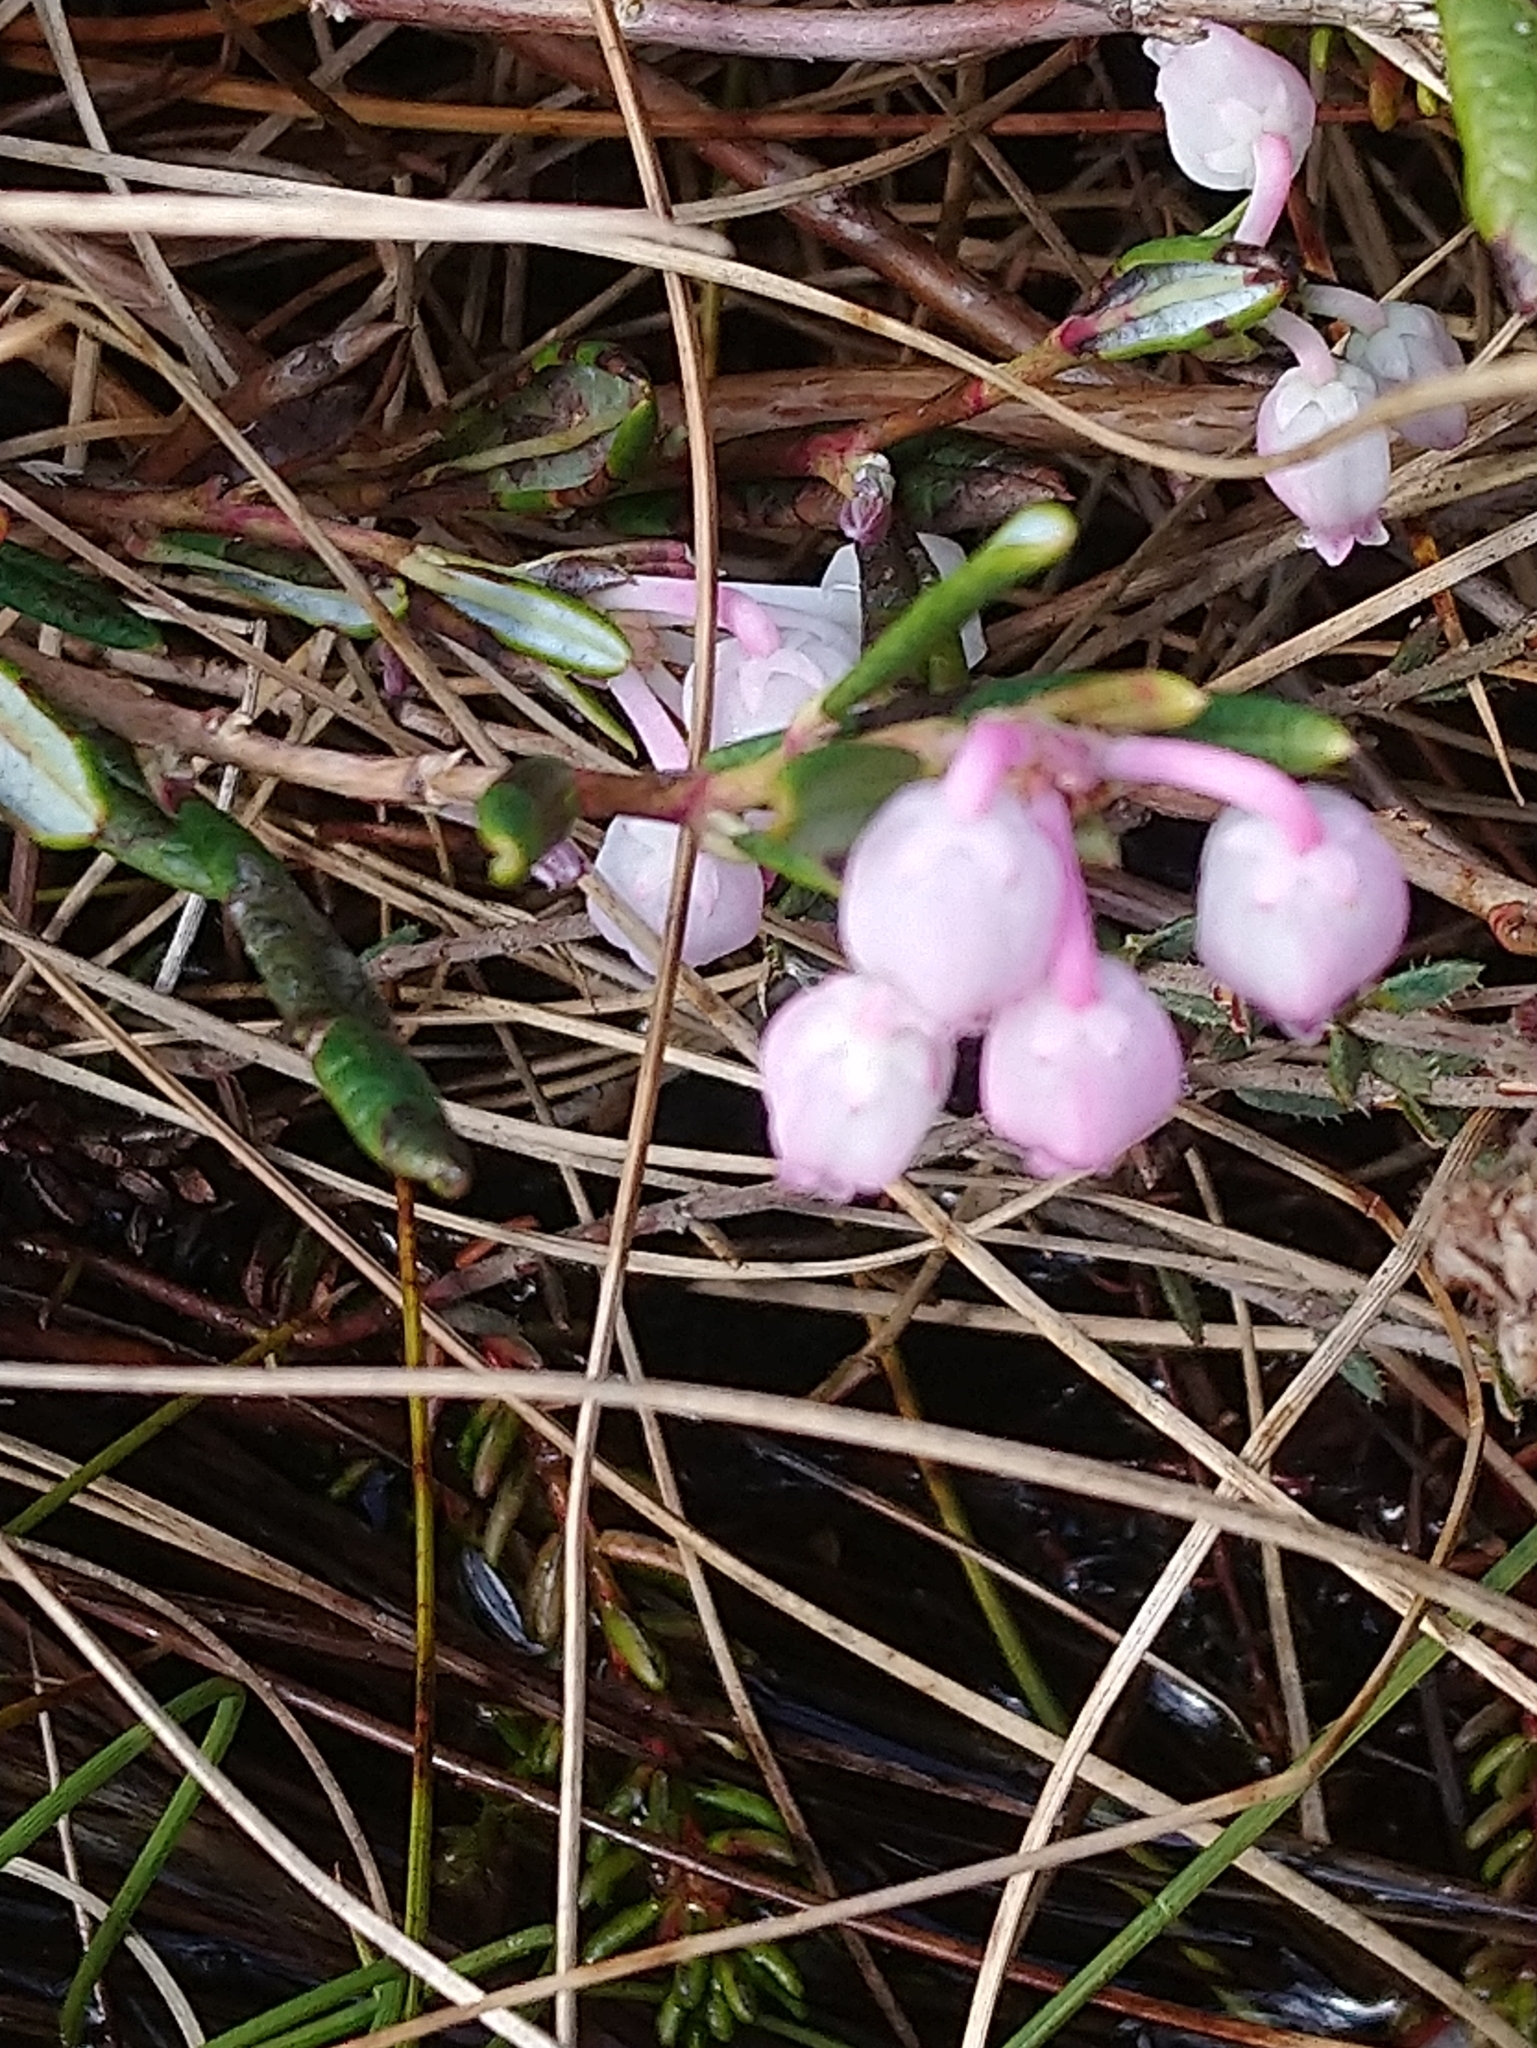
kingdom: Plantae
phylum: Tracheophyta
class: Magnoliopsida
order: Ericales
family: Ericaceae
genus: Andromeda
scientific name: Andromeda polifolia
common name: Bog-rosemary
